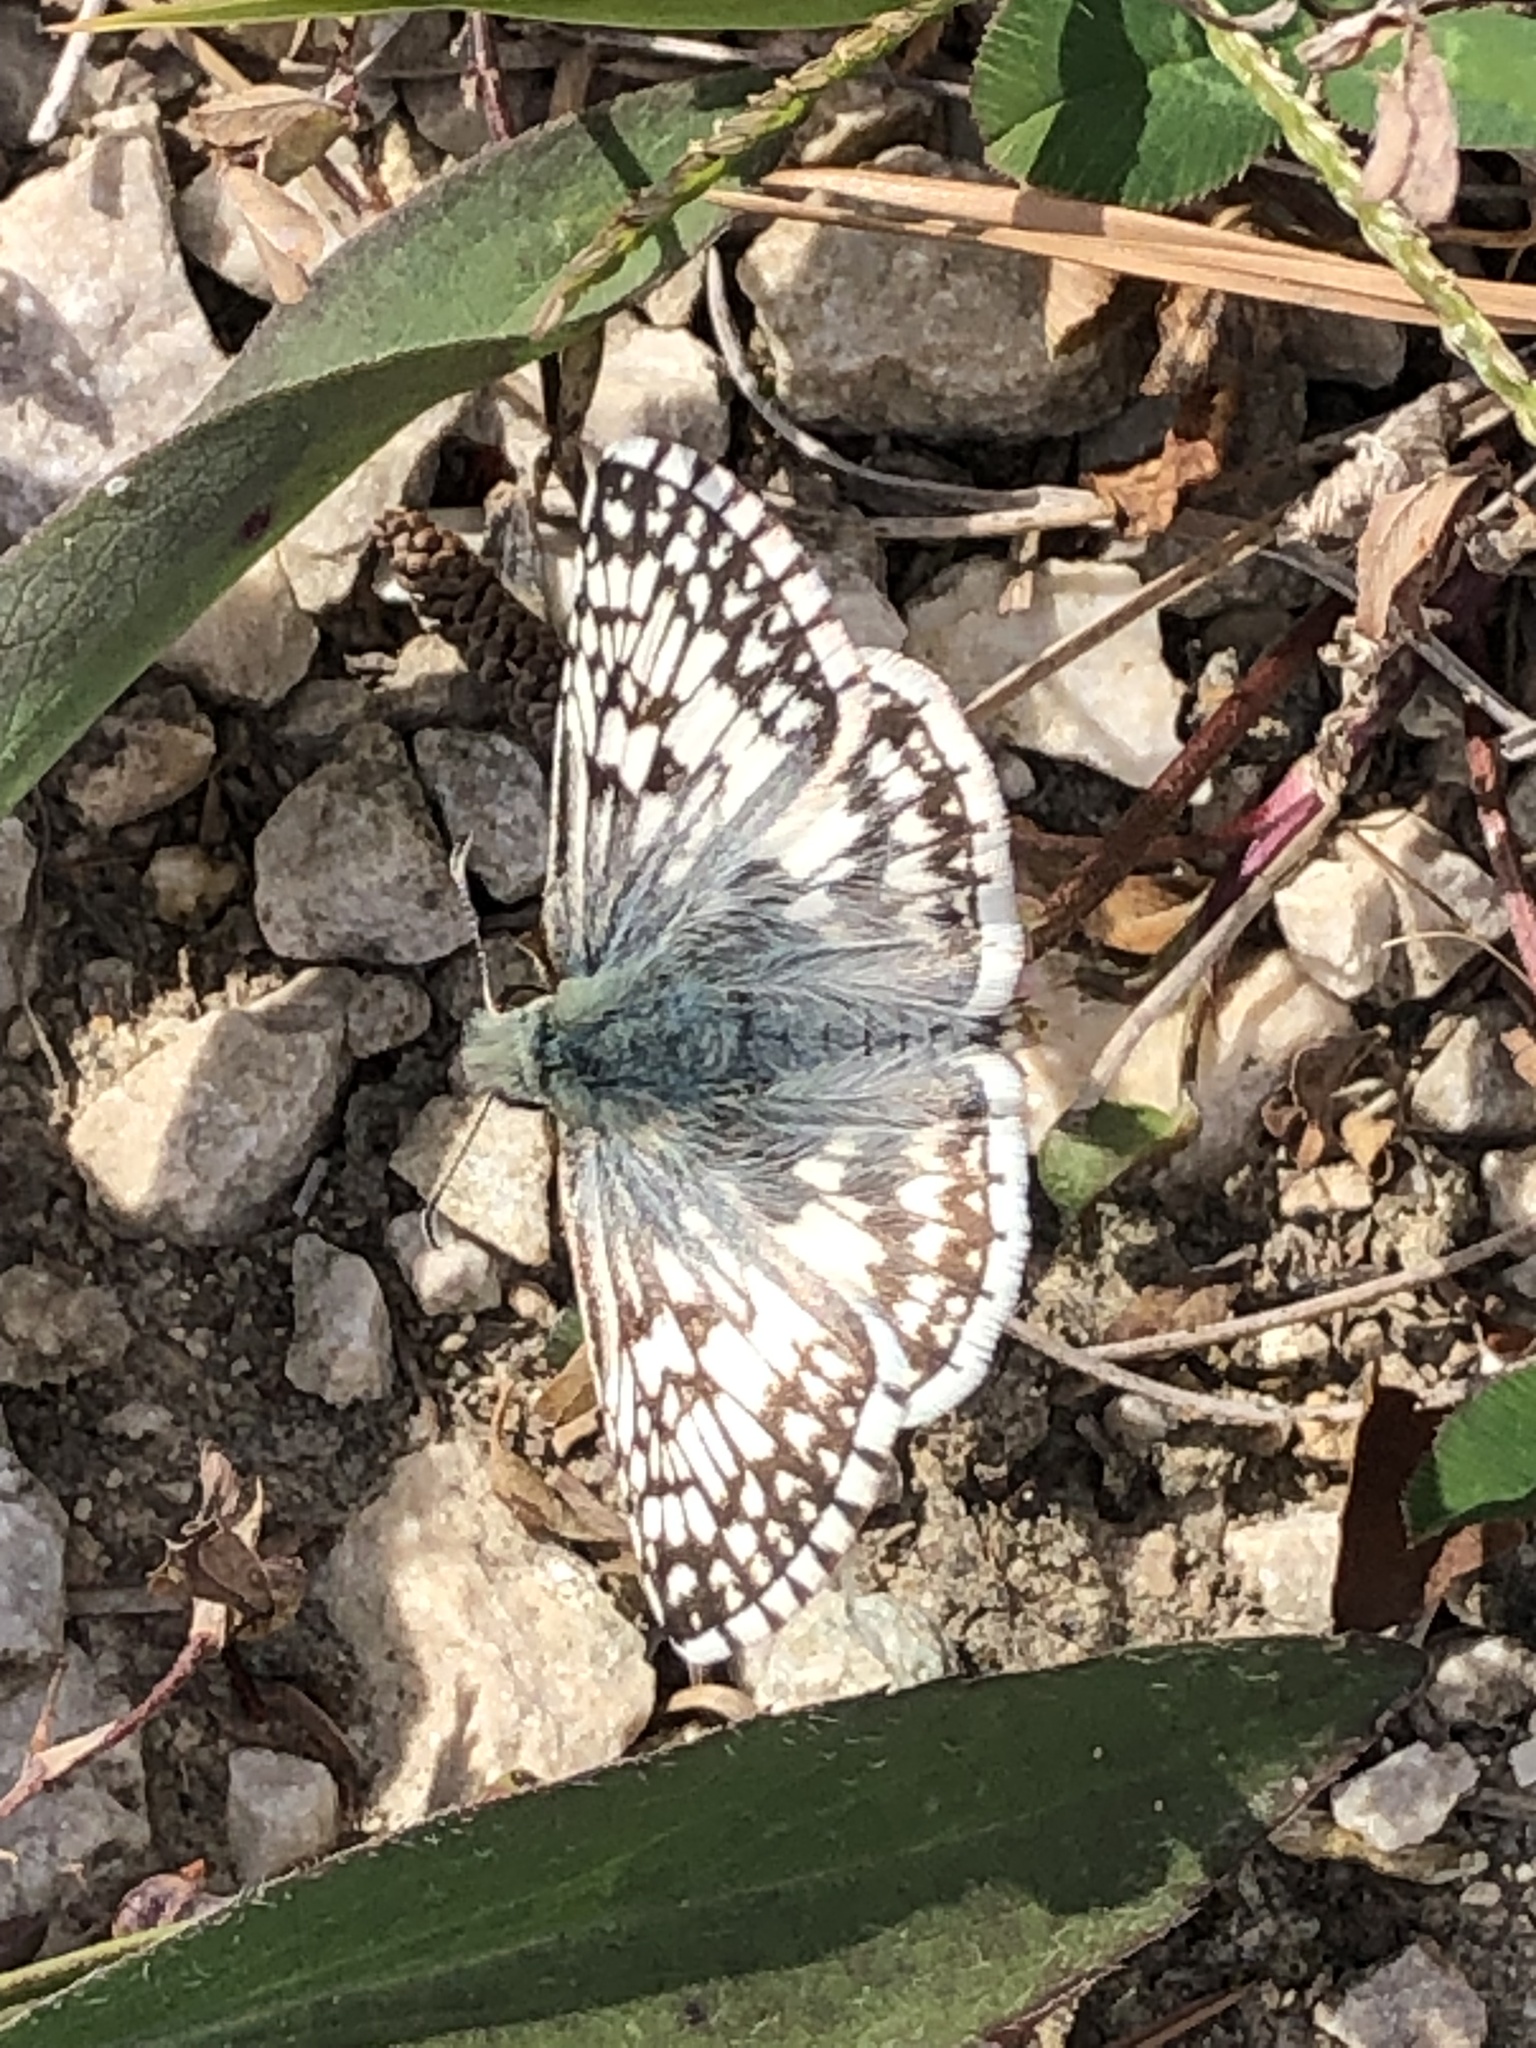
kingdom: Animalia
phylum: Arthropoda
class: Insecta
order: Lepidoptera
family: Hesperiidae
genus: Burnsius
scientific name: Burnsius communis
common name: Common checkered-skipper
